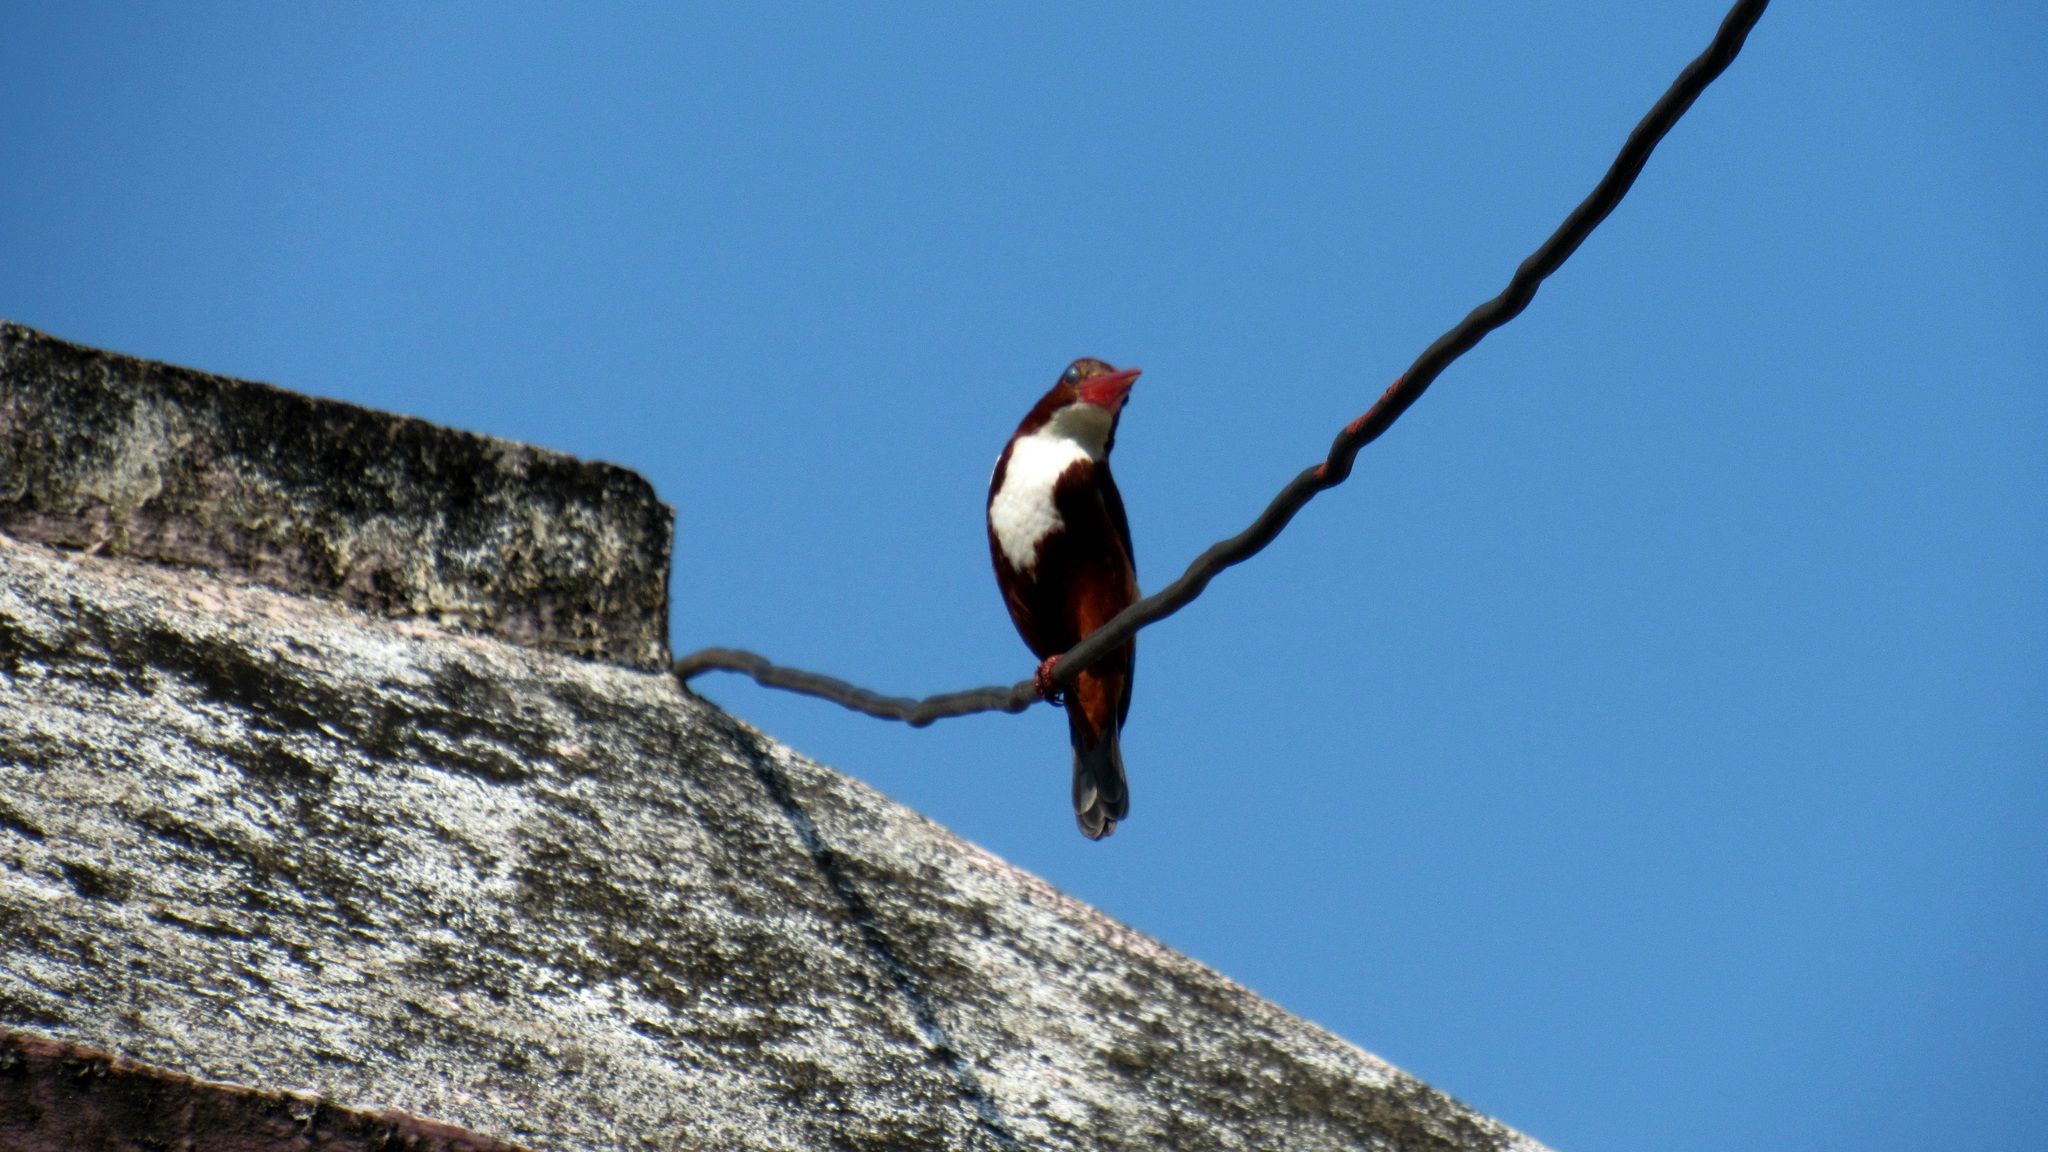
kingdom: Animalia
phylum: Chordata
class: Aves
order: Coraciiformes
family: Alcedinidae
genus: Halcyon
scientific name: Halcyon smyrnensis
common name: White-throated kingfisher
